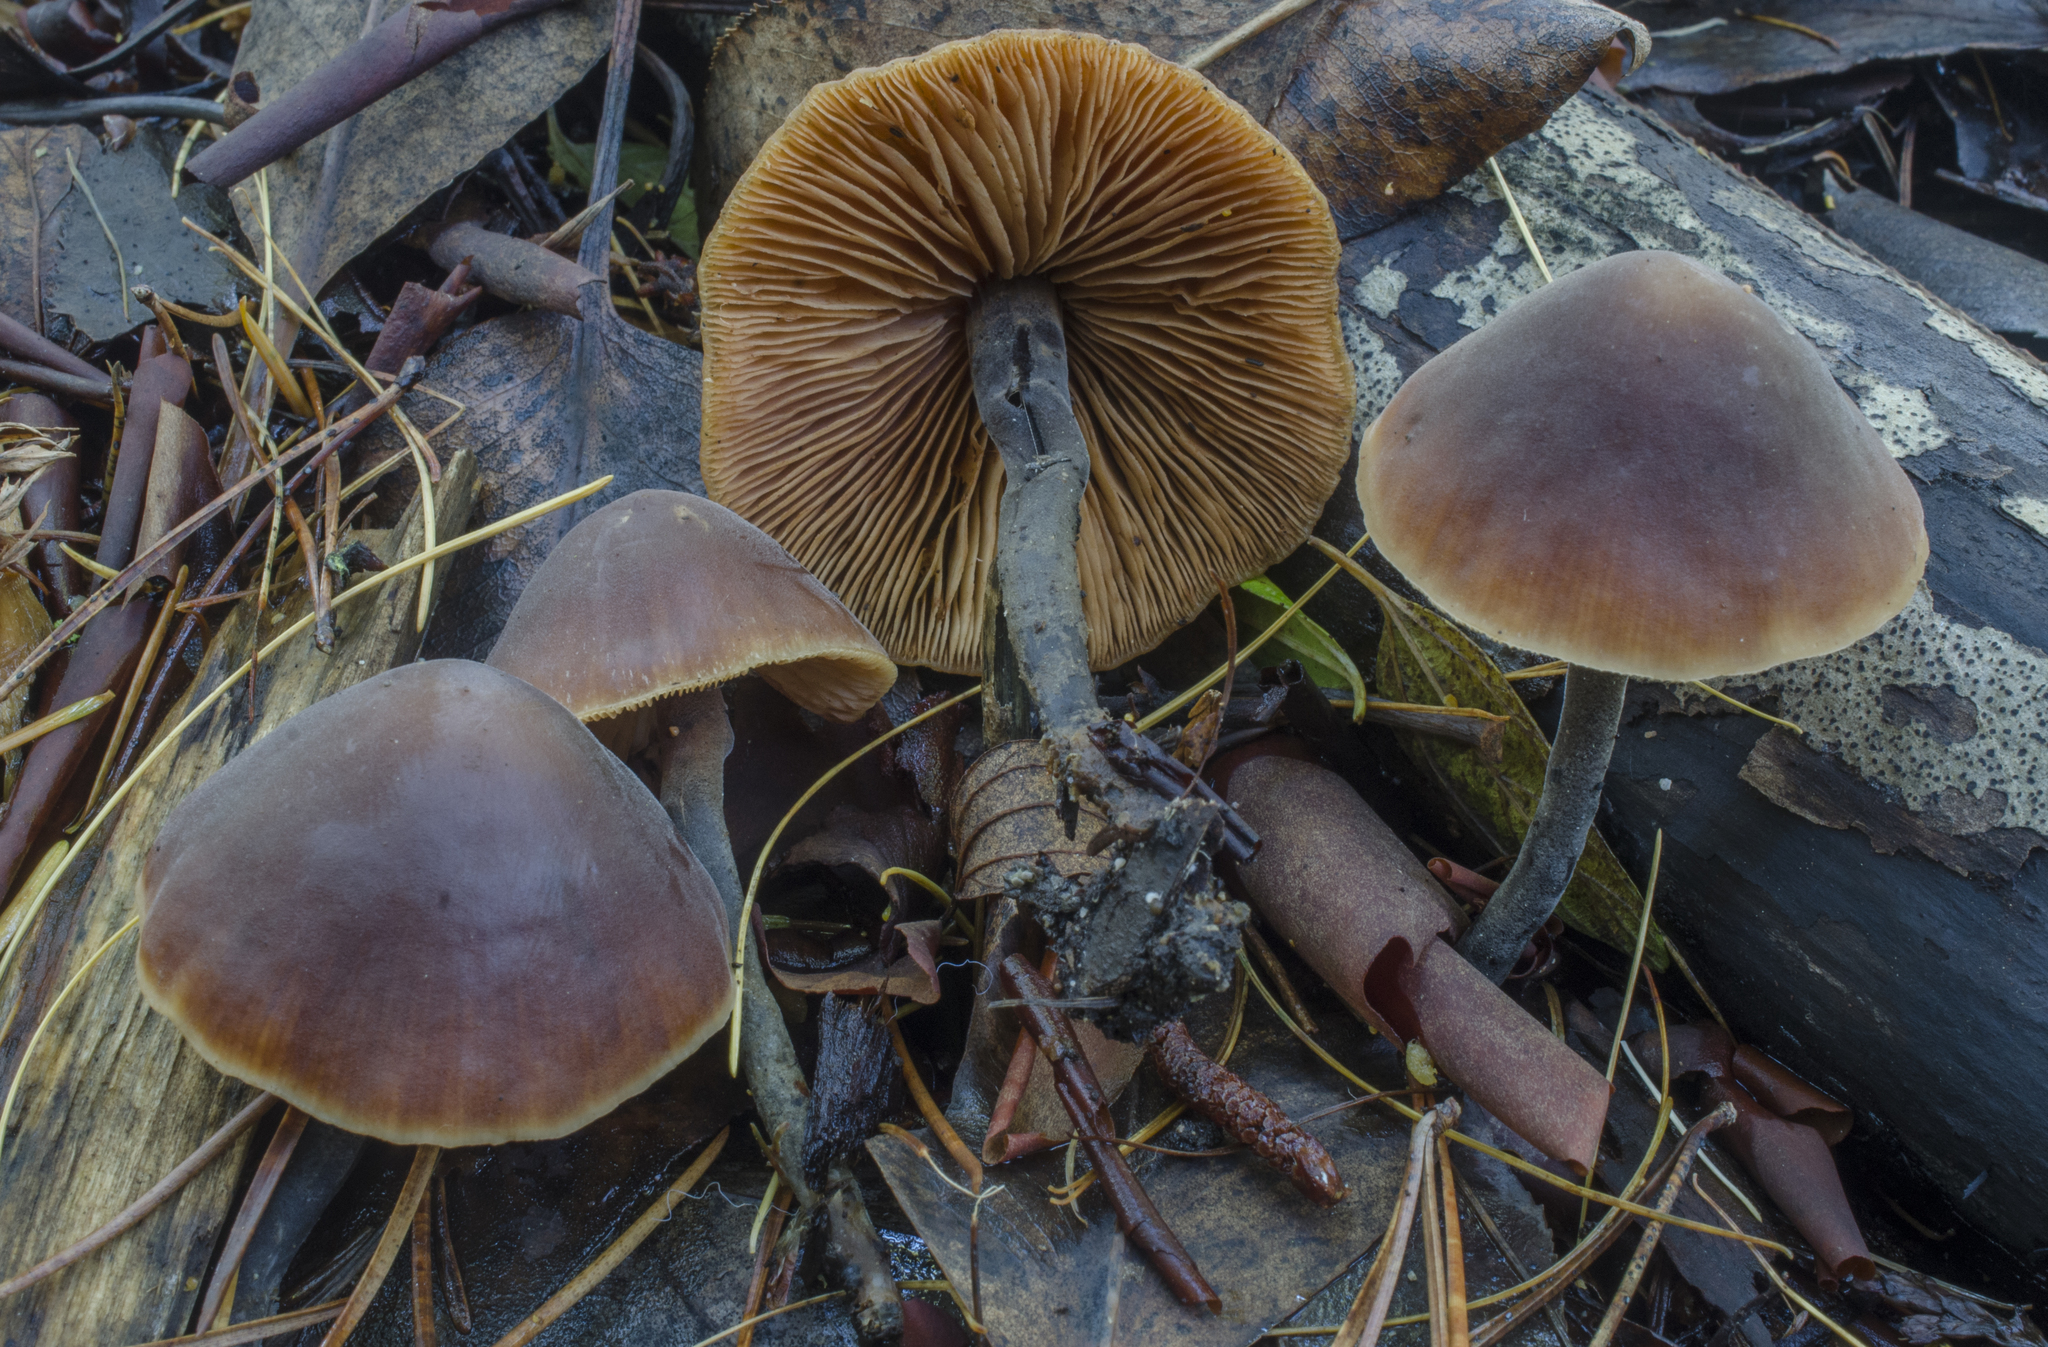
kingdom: Fungi
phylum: Basidiomycota
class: Agaricomycetes
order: Agaricales
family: Macrocystidiaceae
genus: Macrocystidia
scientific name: Macrocystidia cucumis
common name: Cucumber cap
